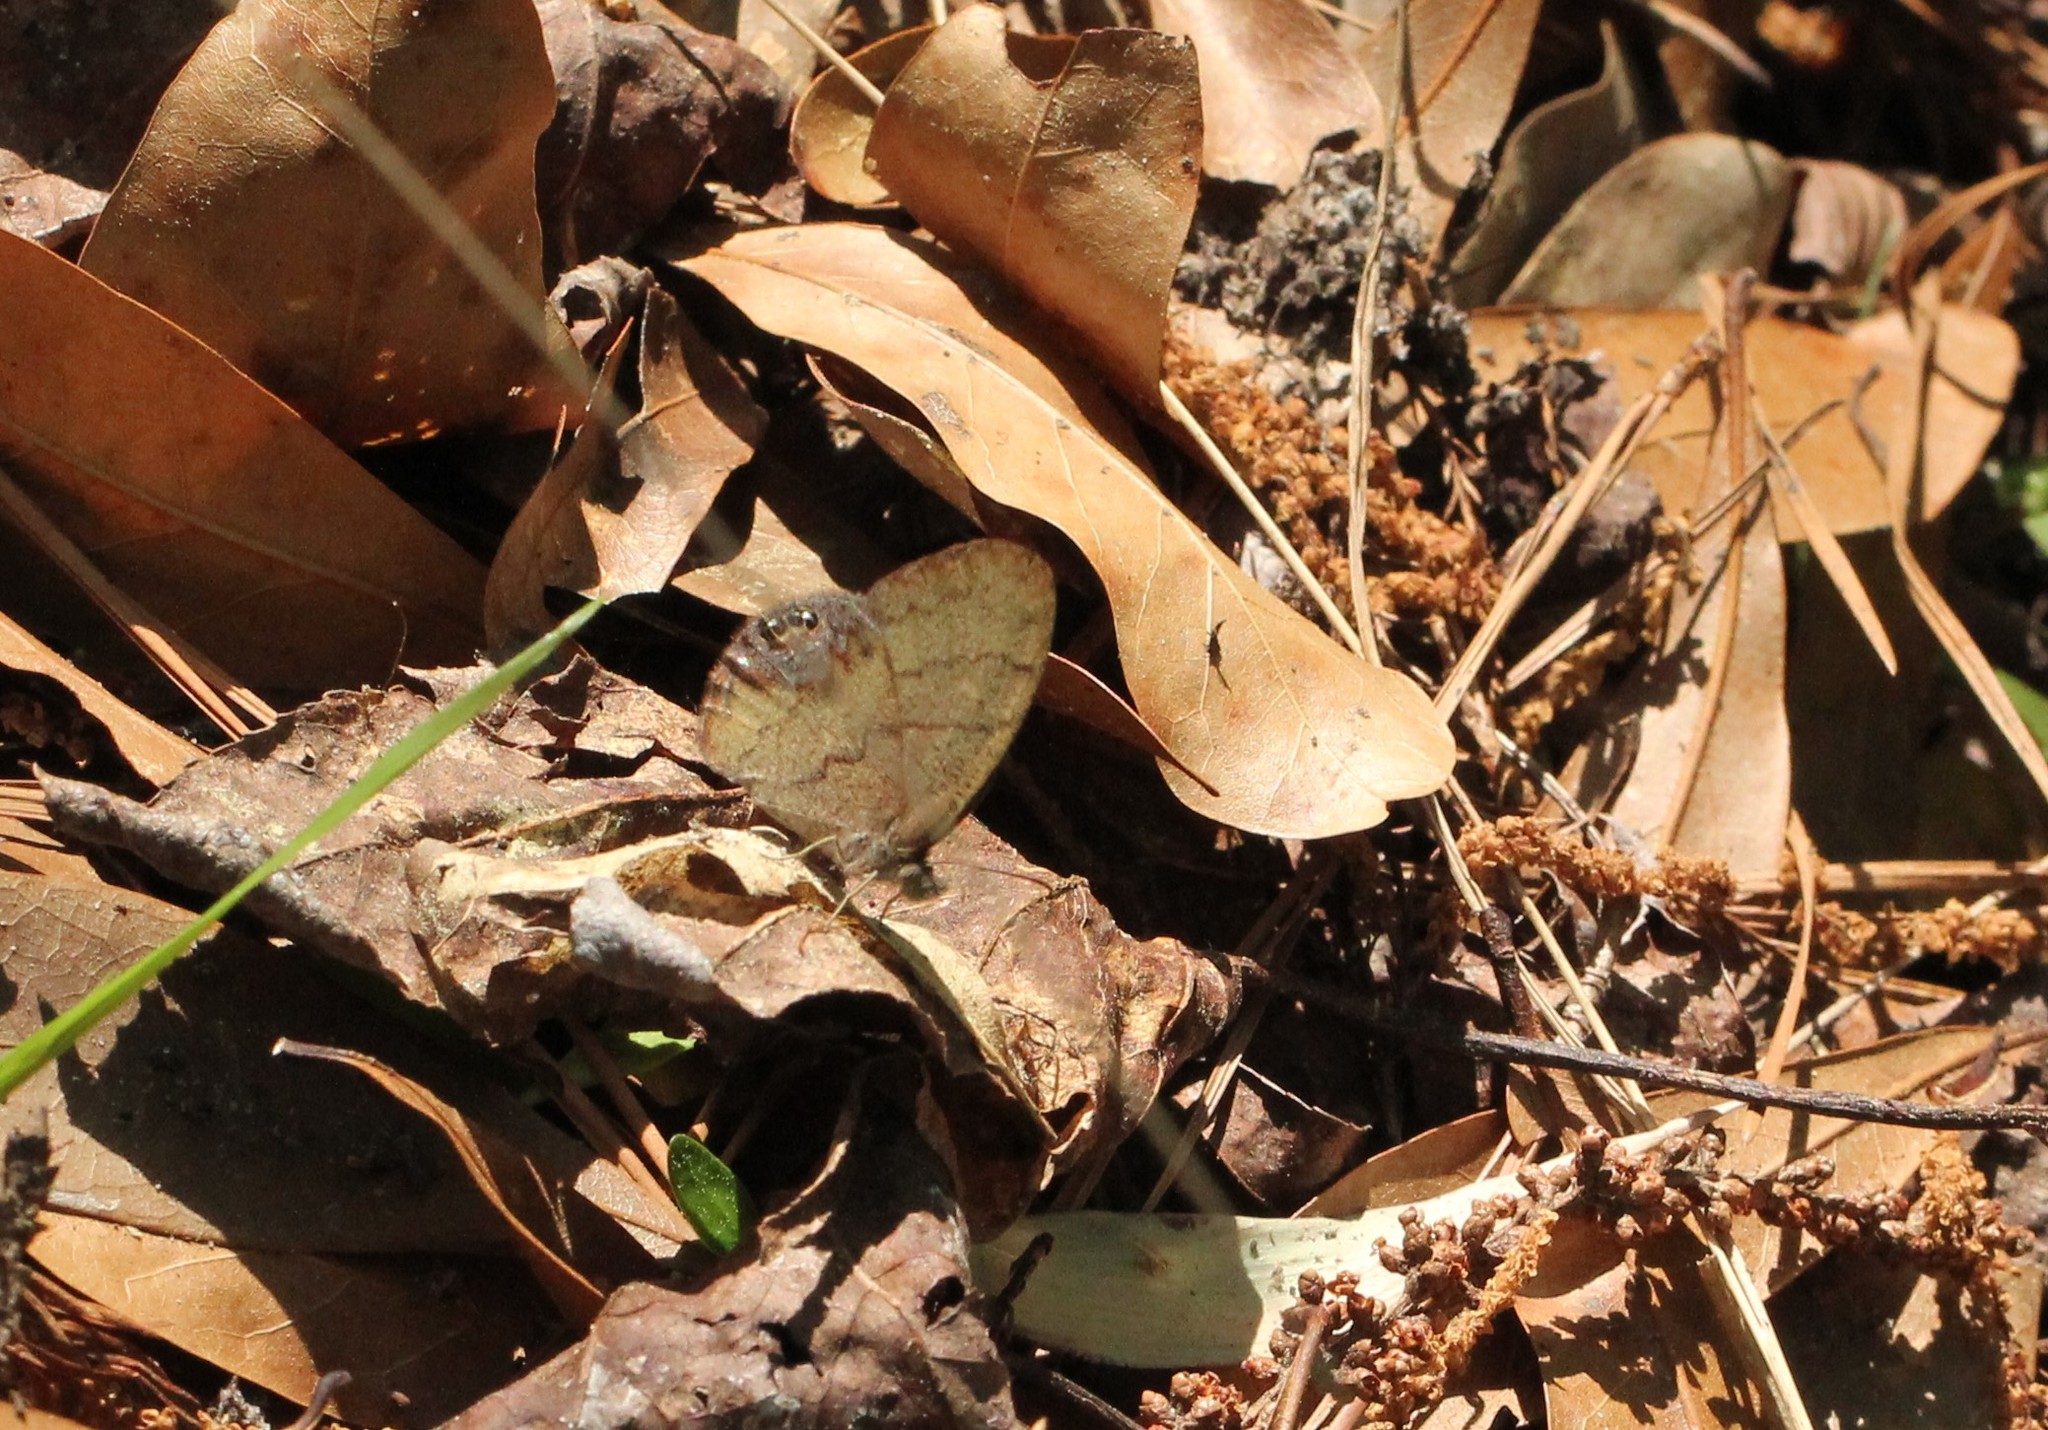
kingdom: Animalia
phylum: Arthropoda
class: Insecta
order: Lepidoptera
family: Nymphalidae
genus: Euptychia
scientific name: Euptychia cornelius
